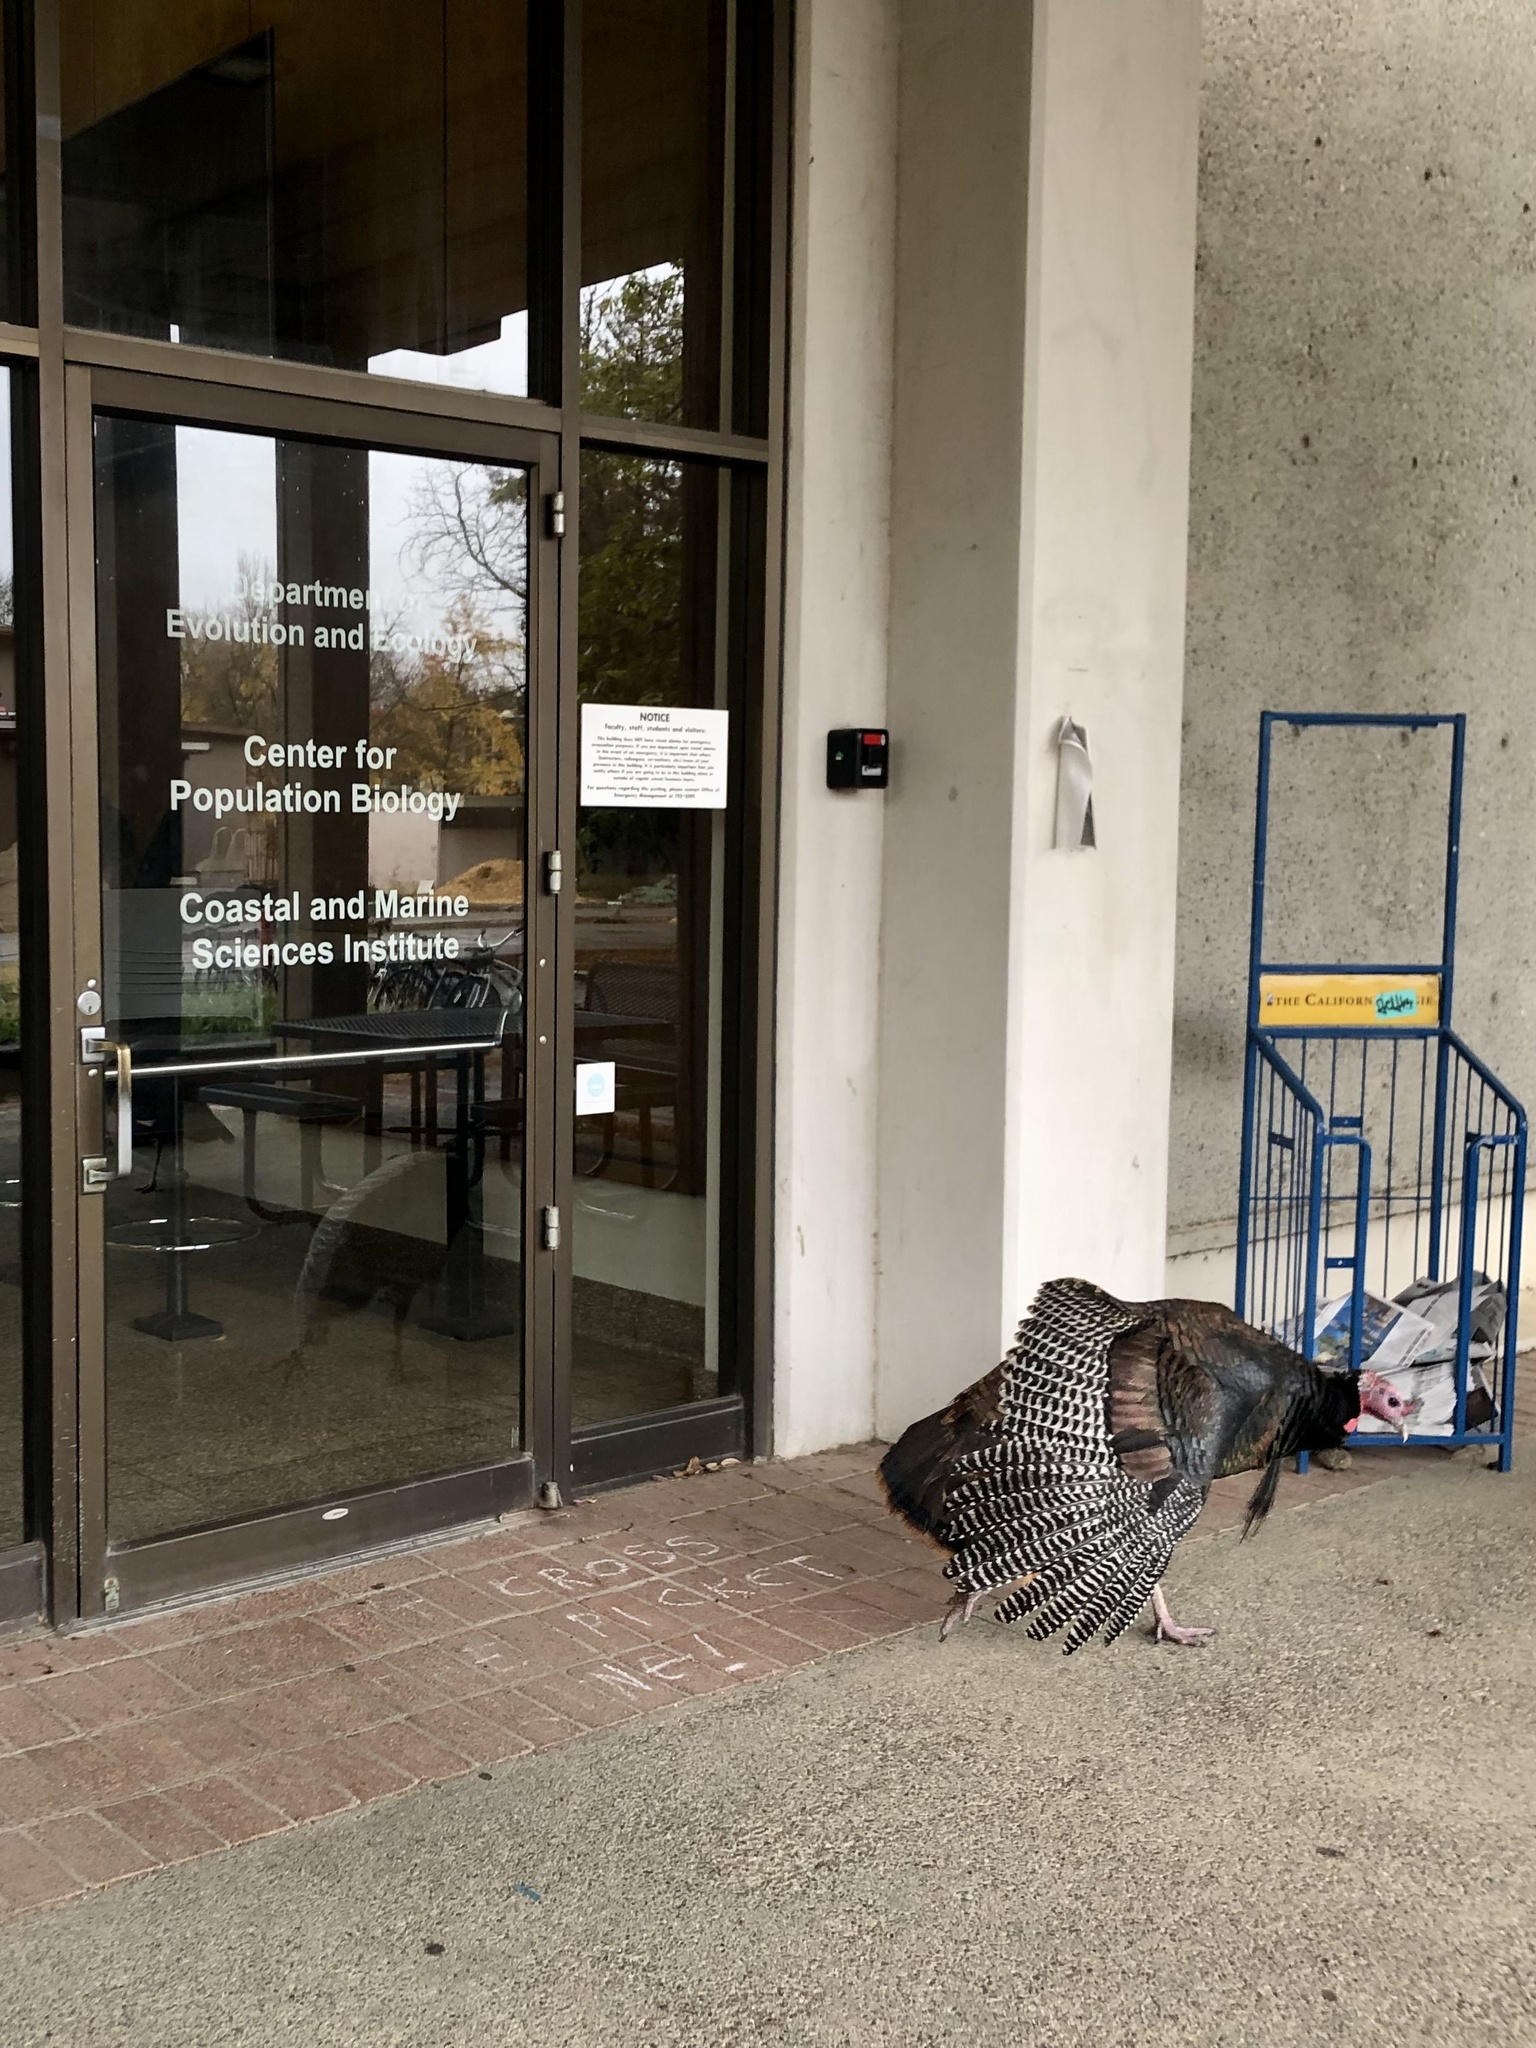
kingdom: Animalia
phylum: Chordata
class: Aves
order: Galliformes
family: Phasianidae
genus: Meleagris
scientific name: Meleagris gallopavo
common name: Wild turkey
